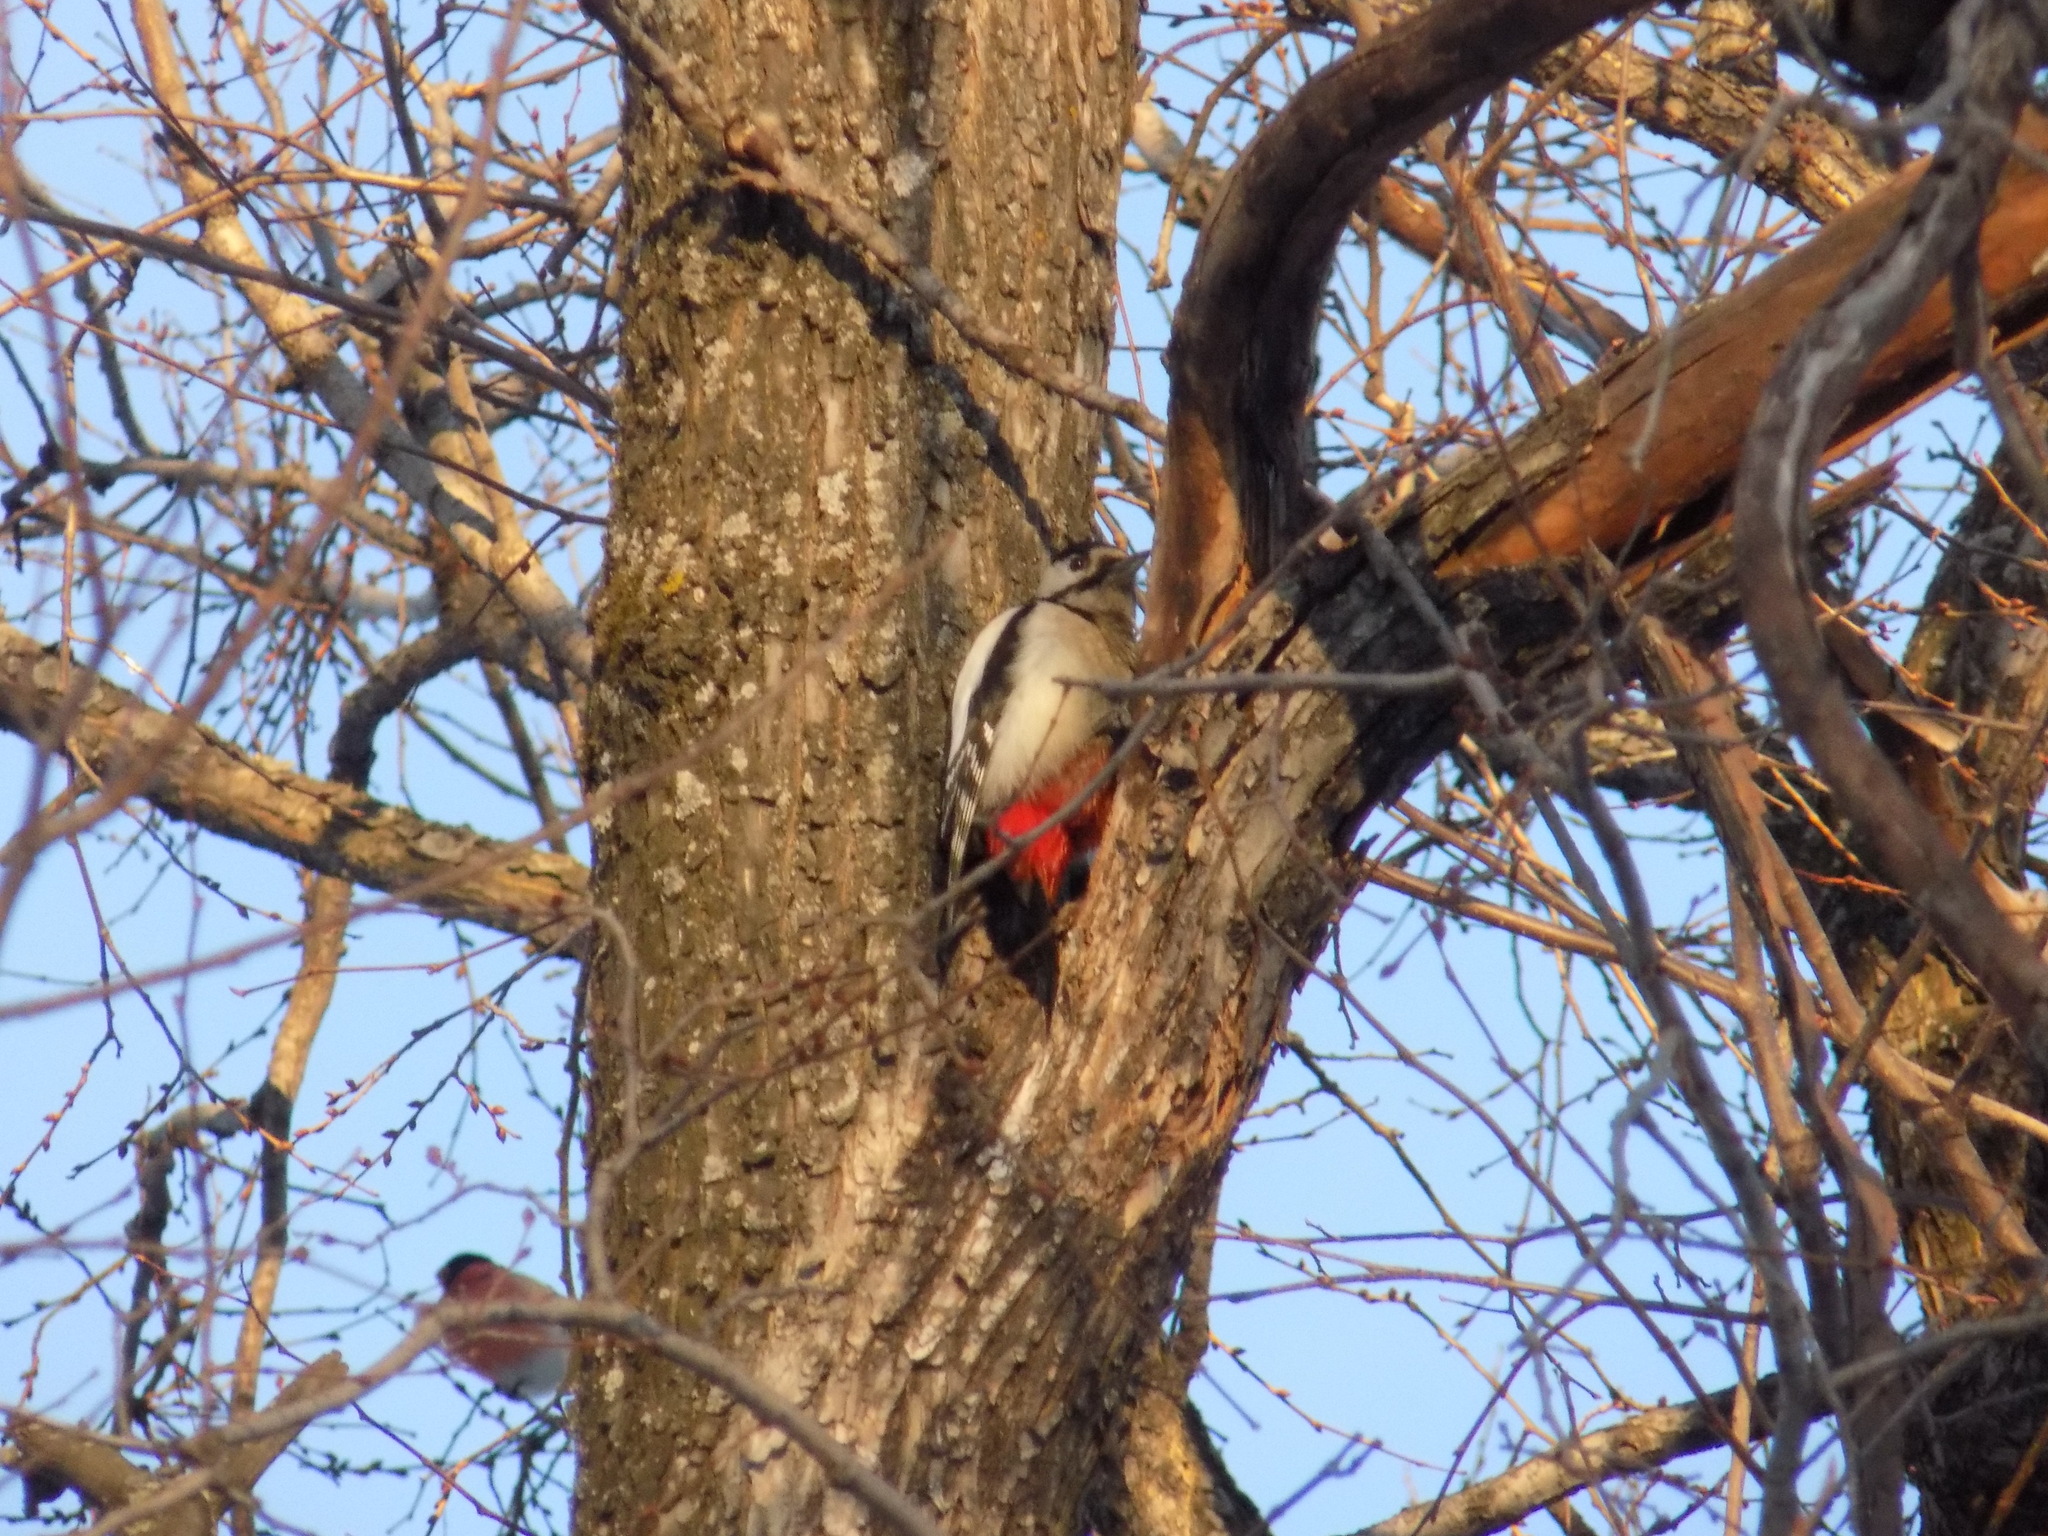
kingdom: Animalia
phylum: Chordata
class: Aves
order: Piciformes
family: Picidae
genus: Dendrocopos
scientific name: Dendrocopos major
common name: Great spotted woodpecker
